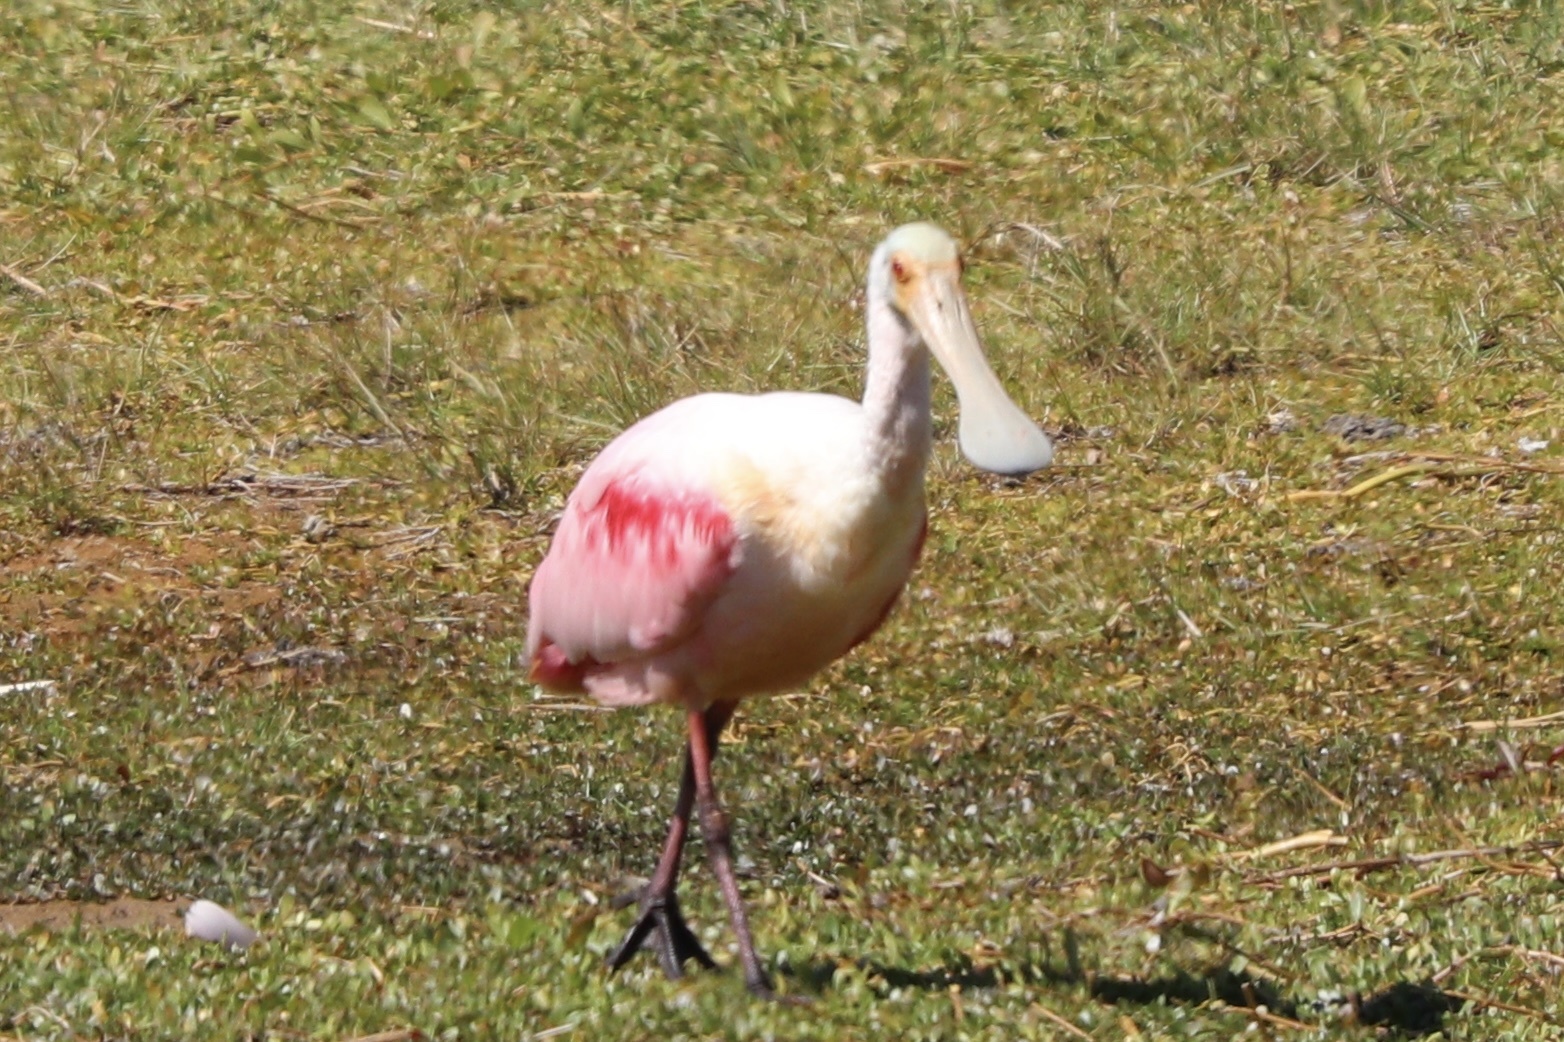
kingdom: Animalia
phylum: Chordata
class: Aves
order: Pelecaniformes
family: Threskiornithidae
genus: Platalea
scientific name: Platalea ajaja
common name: Roseate spoonbill
